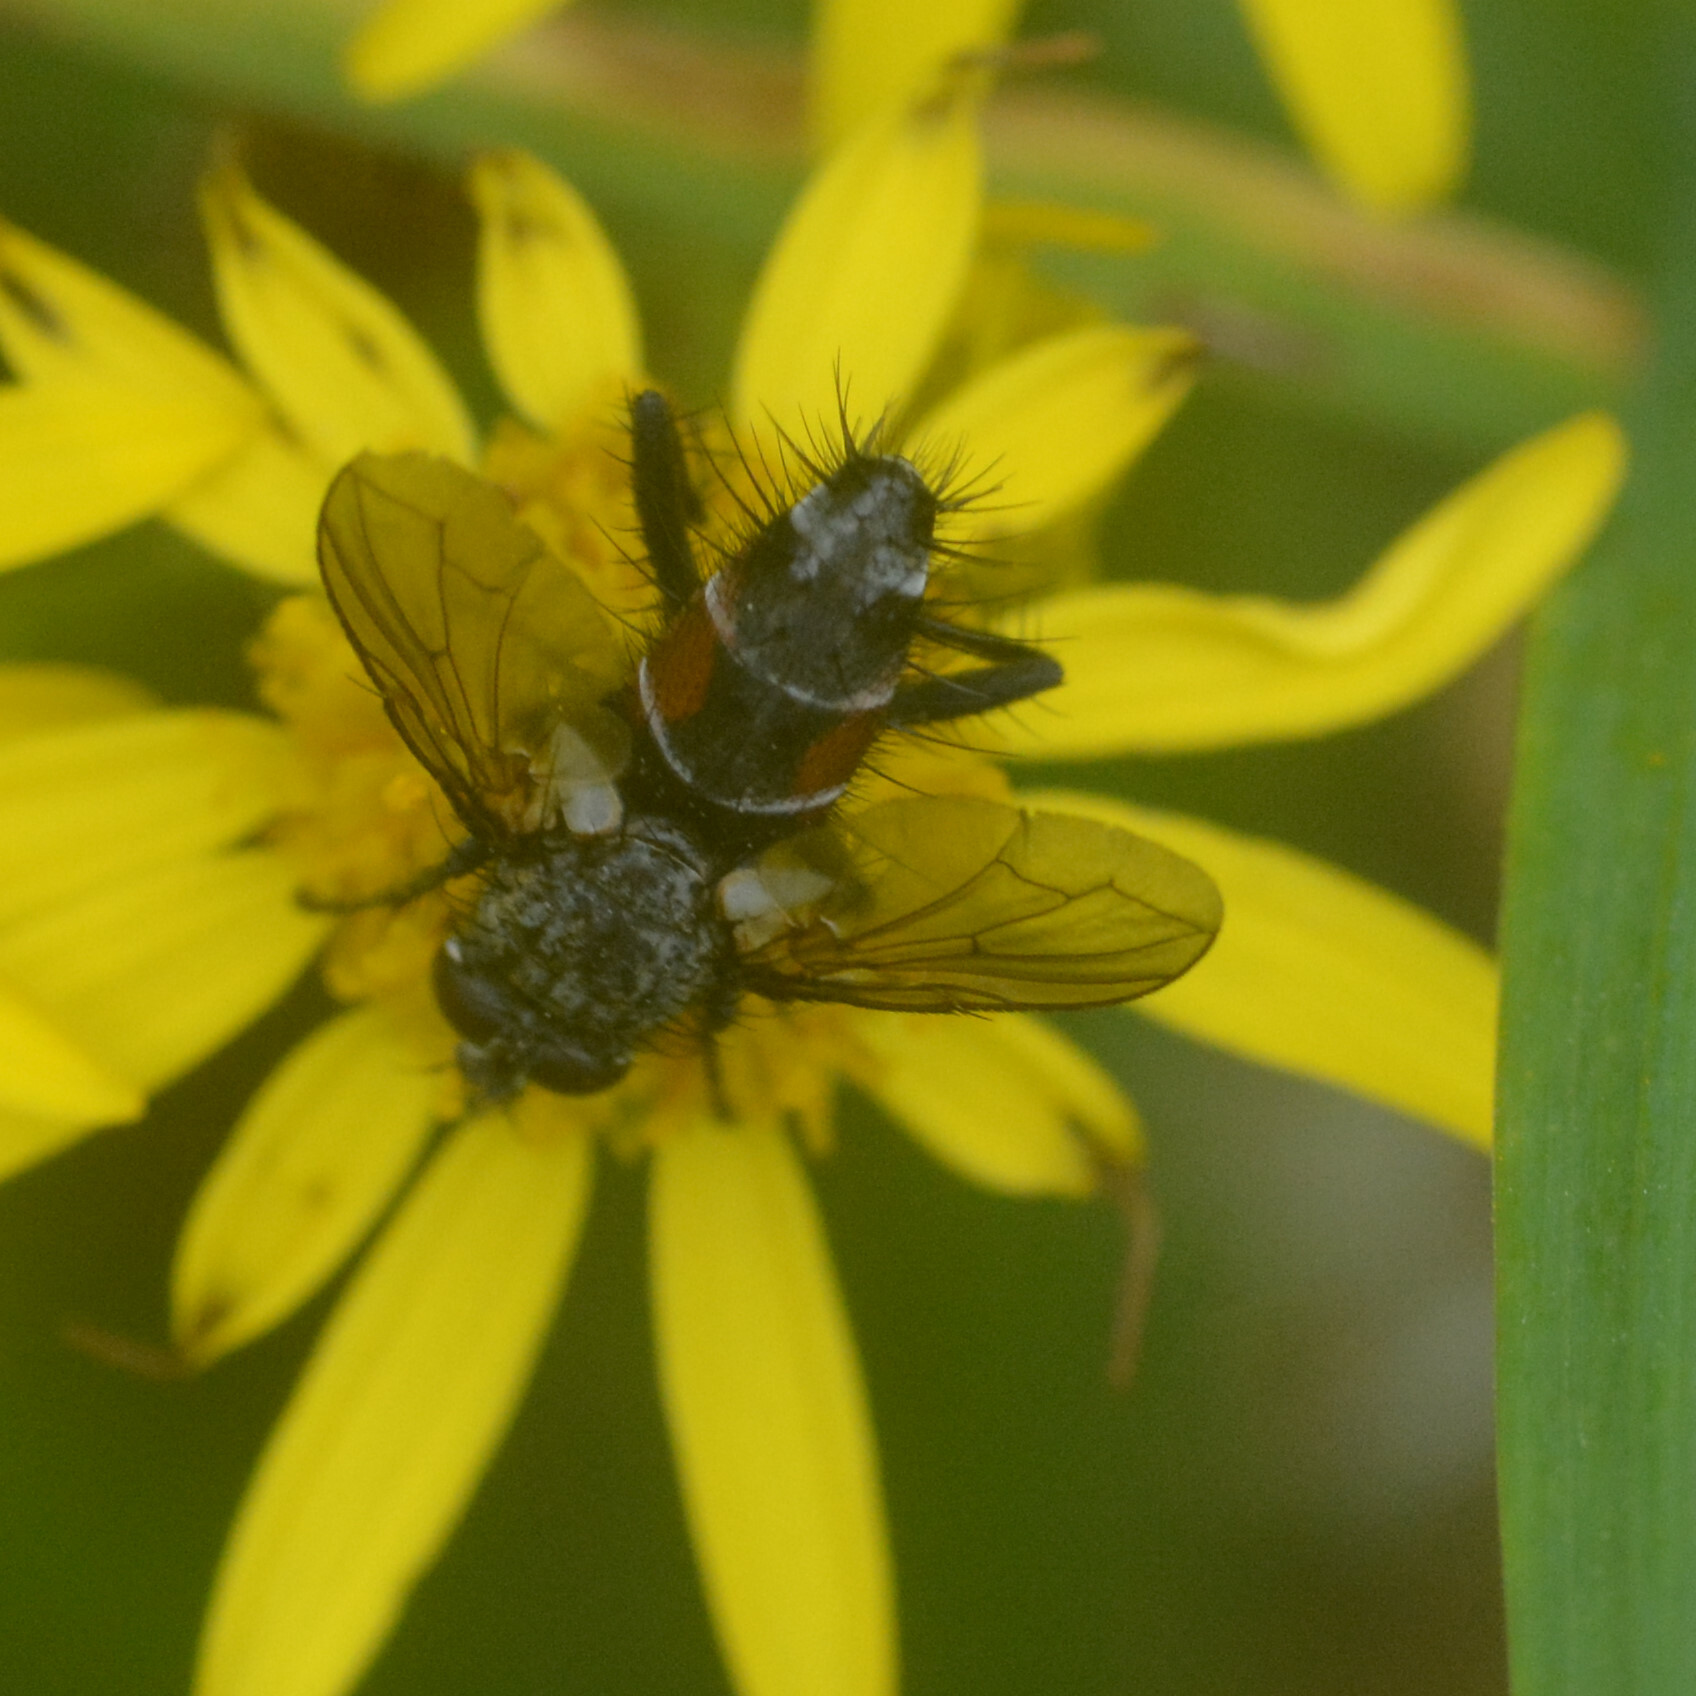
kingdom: Animalia
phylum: Arthropoda
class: Insecta
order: Diptera
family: Tachinidae
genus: Eriothrix
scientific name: Eriothrix rufomaculatus
